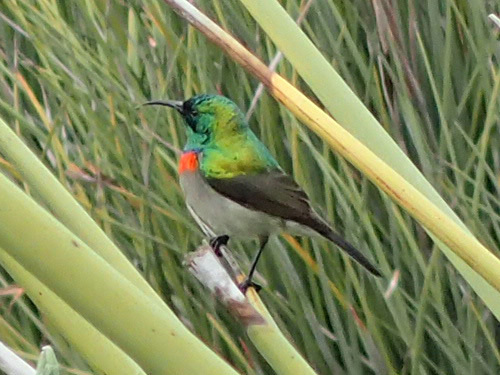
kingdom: Animalia
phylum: Chordata
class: Aves
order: Passeriformes
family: Nectariniidae
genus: Cinnyris
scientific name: Cinnyris chalybeus
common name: Southern double-collared sunbird
